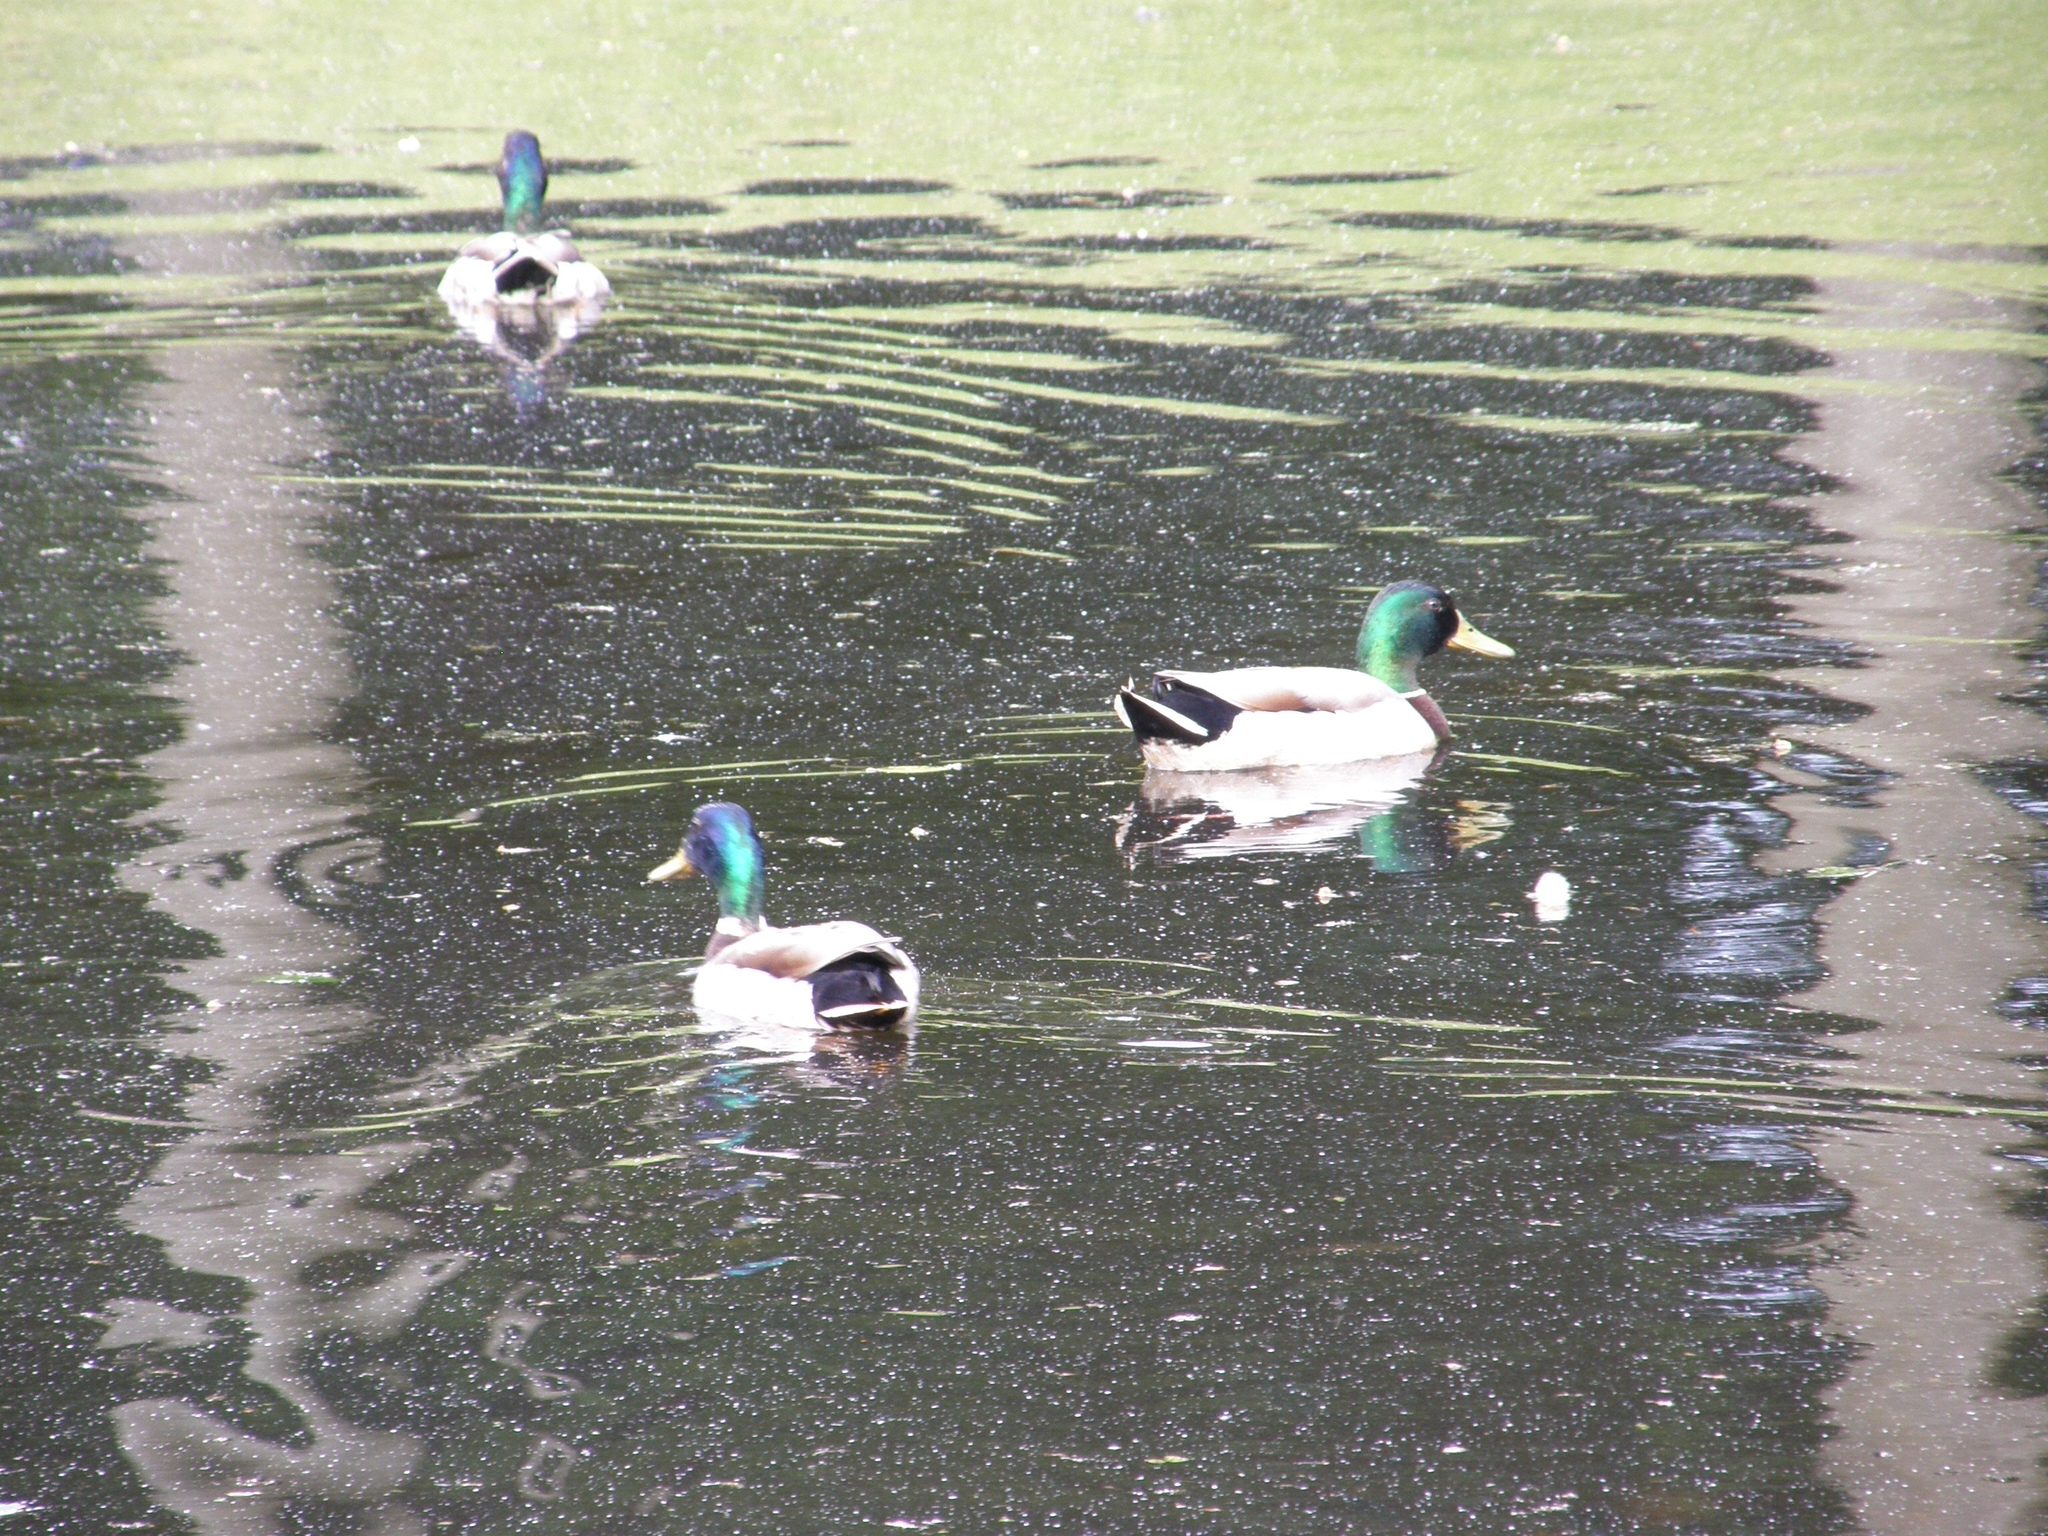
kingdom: Animalia
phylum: Chordata
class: Aves
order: Anseriformes
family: Anatidae
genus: Anas
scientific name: Anas platyrhynchos
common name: Mallard
